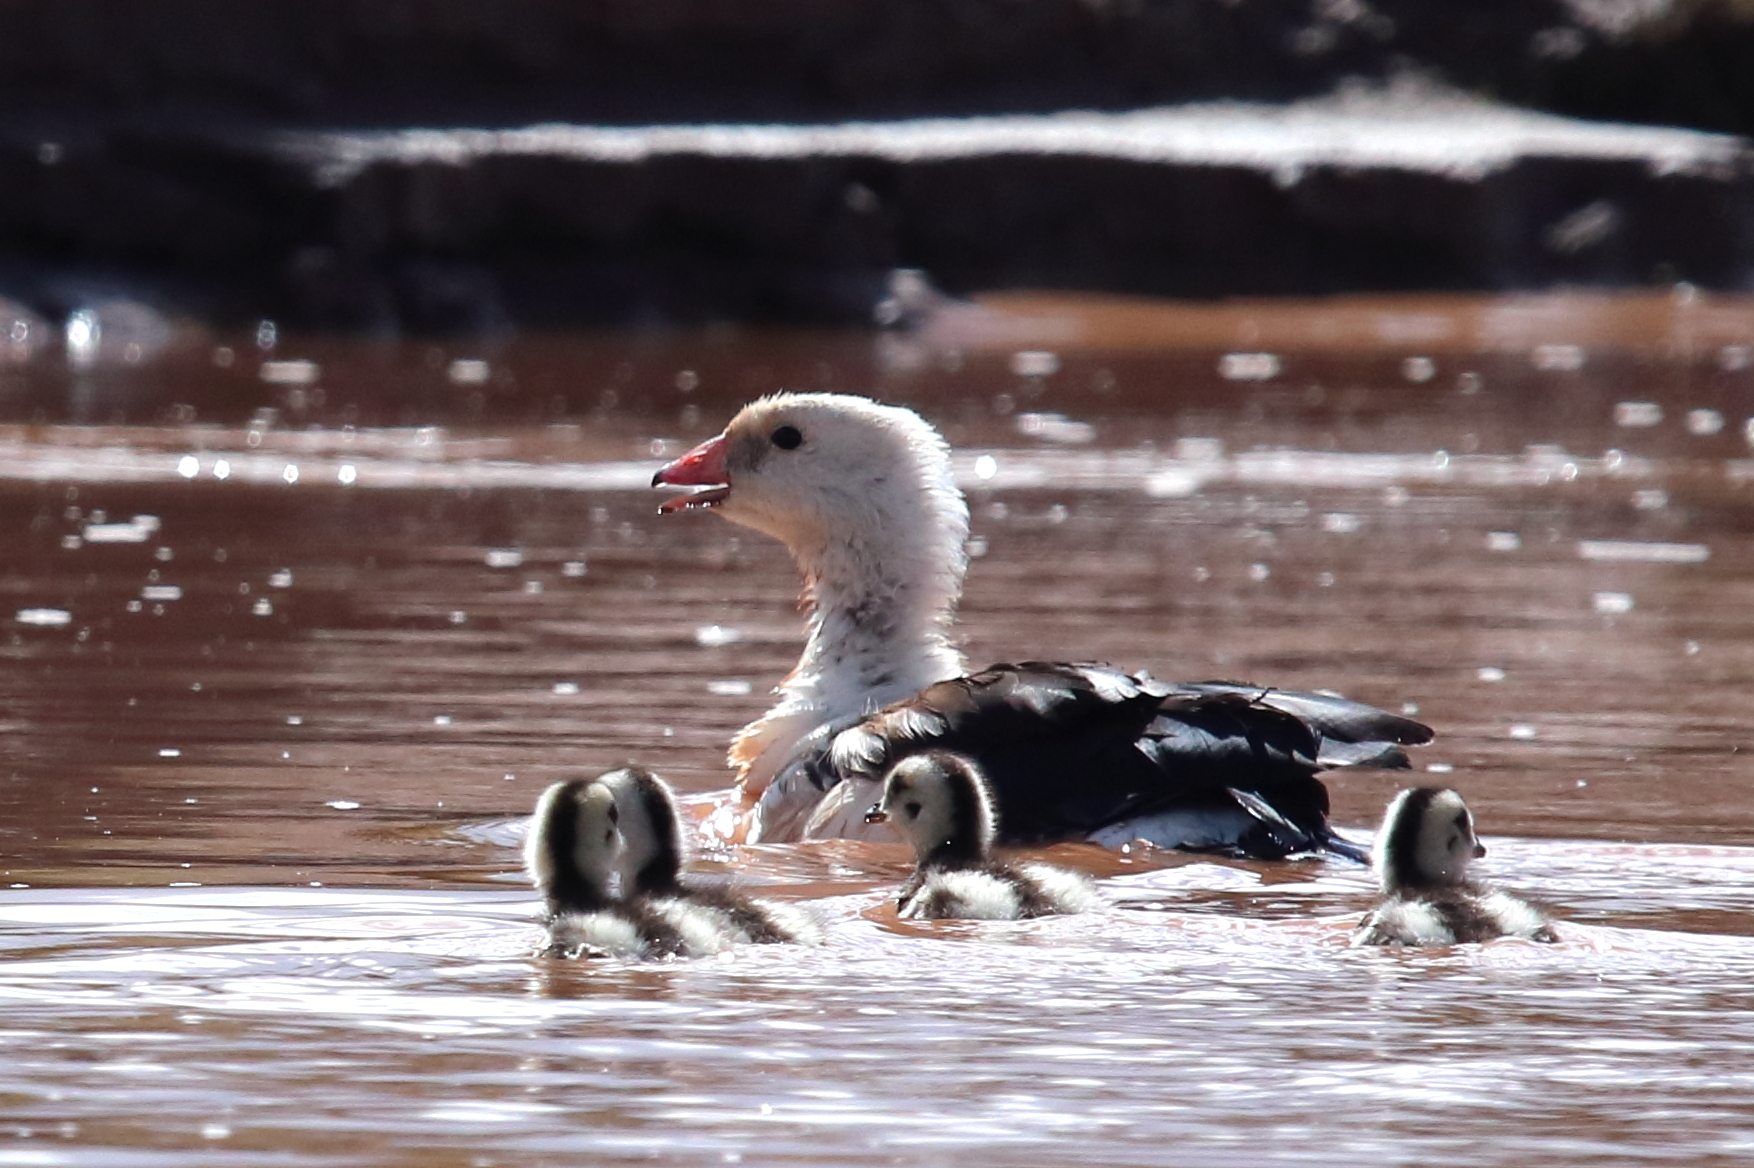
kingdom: Animalia
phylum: Chordata
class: Aves
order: Anseriformes
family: Anatidae
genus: Chloephaga
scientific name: Chloephaga melanoptera
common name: Andean goose
